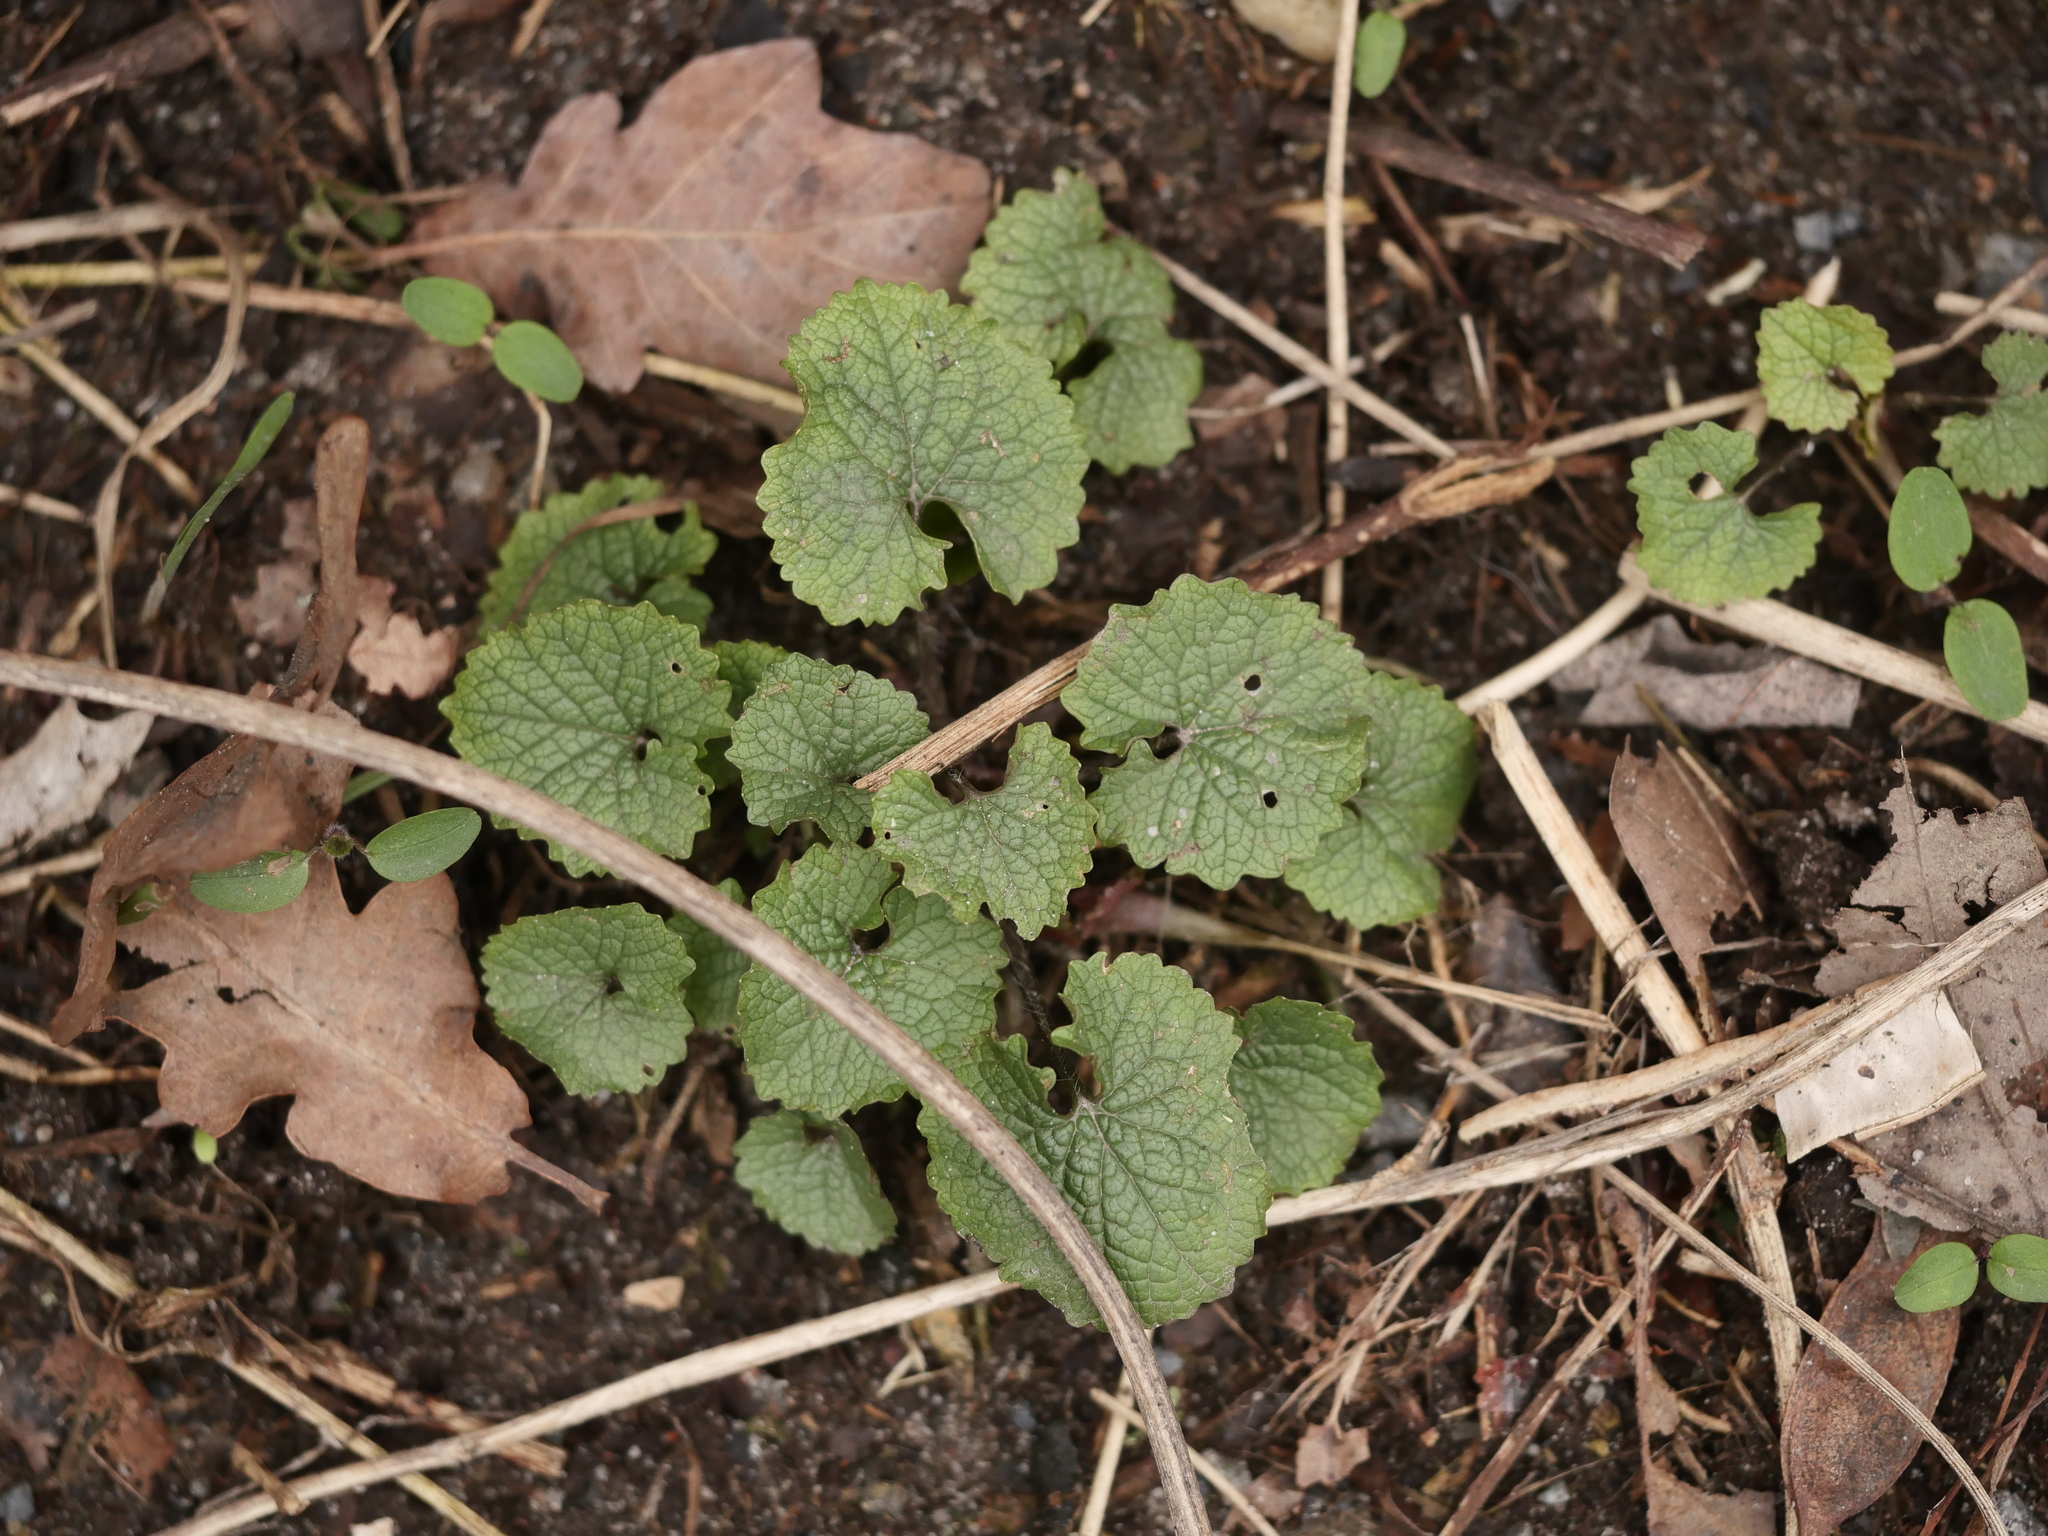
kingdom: Plantae
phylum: Tracheophyta
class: Magnoliopsida
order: Brassicales
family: Brassicaceae
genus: Alliaria
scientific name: Alliaria petiolata
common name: Garlic mustard
